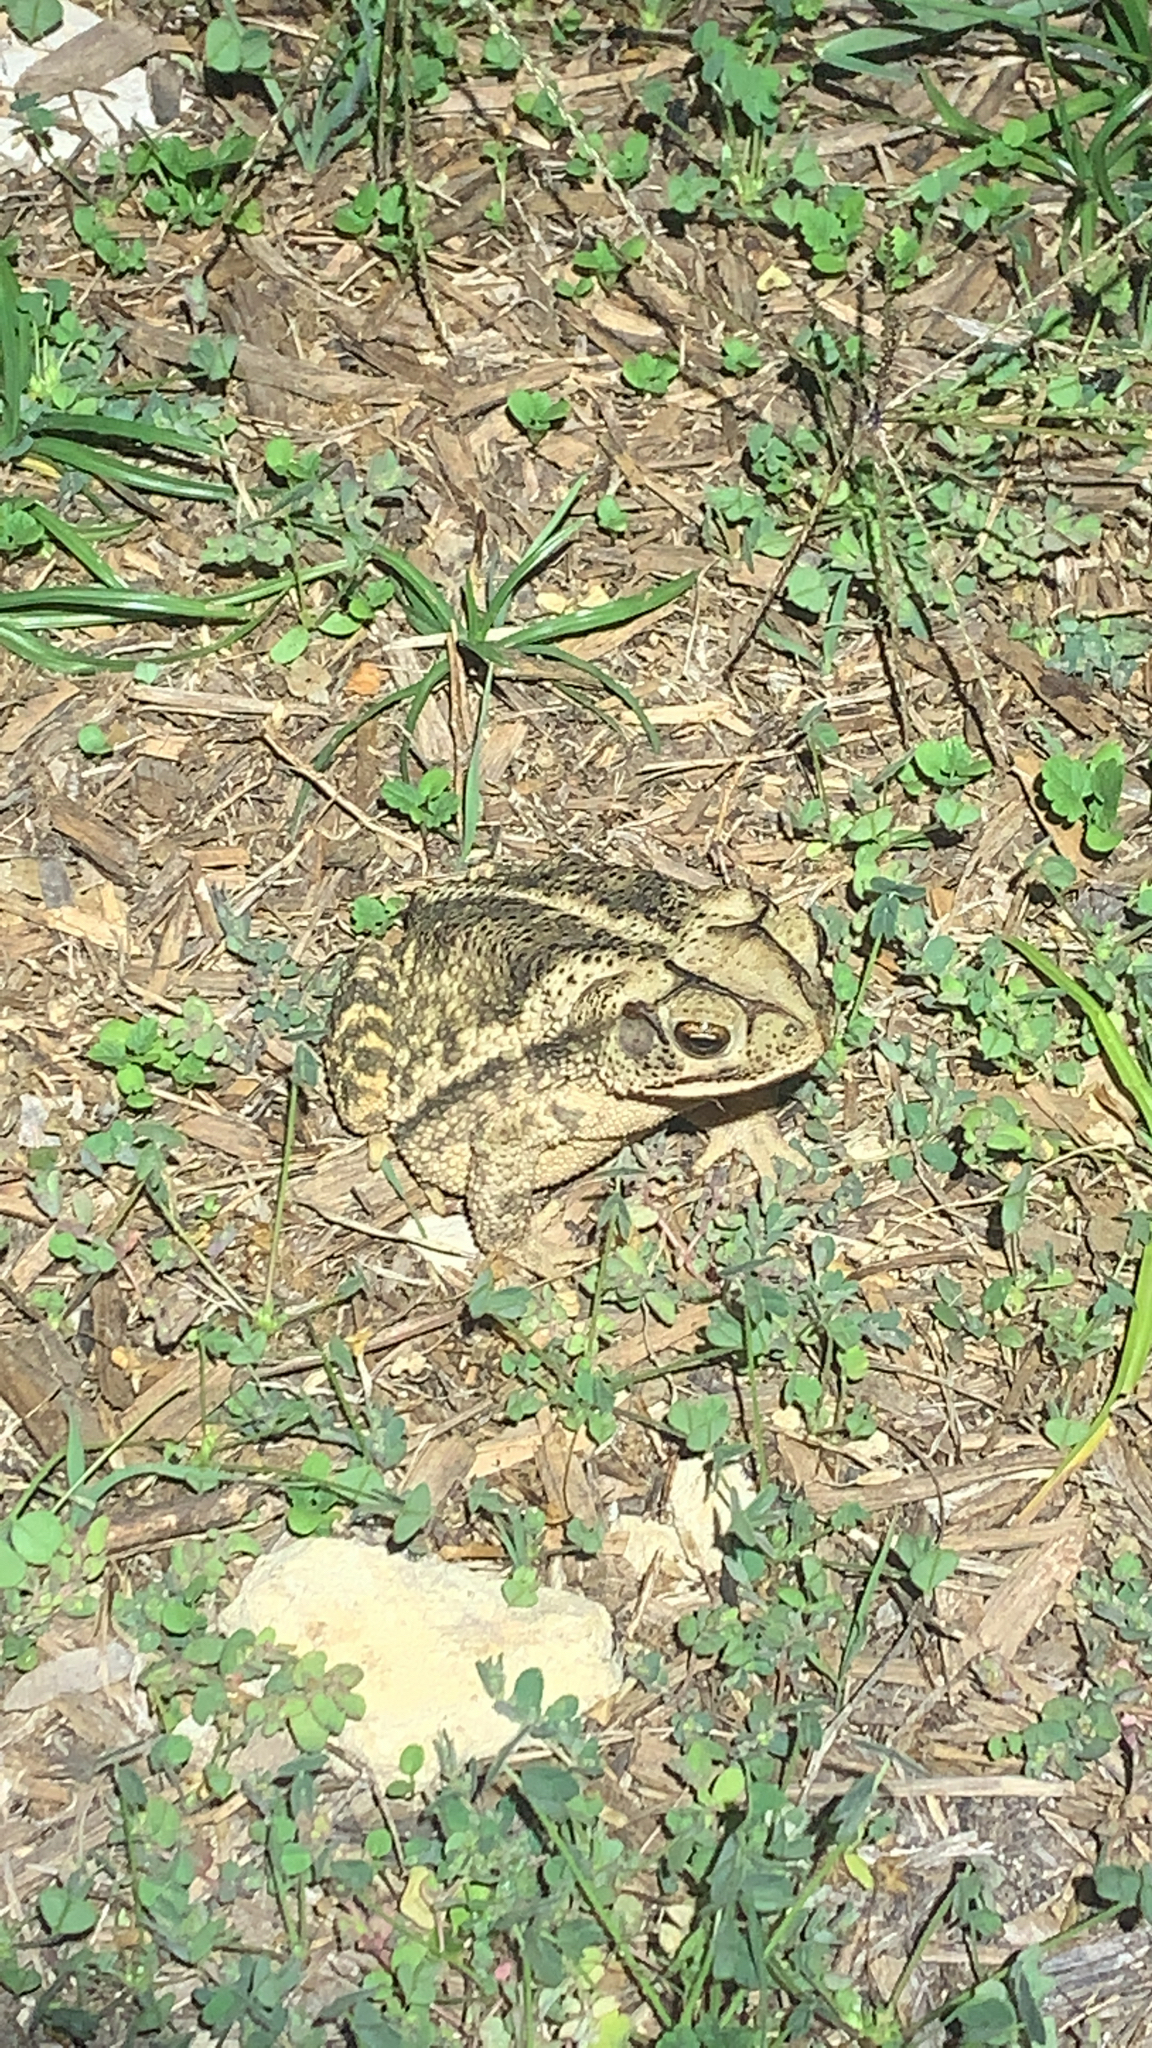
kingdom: Animalia
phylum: Chordata
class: Amphibia
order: Anura
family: Bufonidae
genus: Incilius
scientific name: Incilius nebulifer
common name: Gulf coast toad
